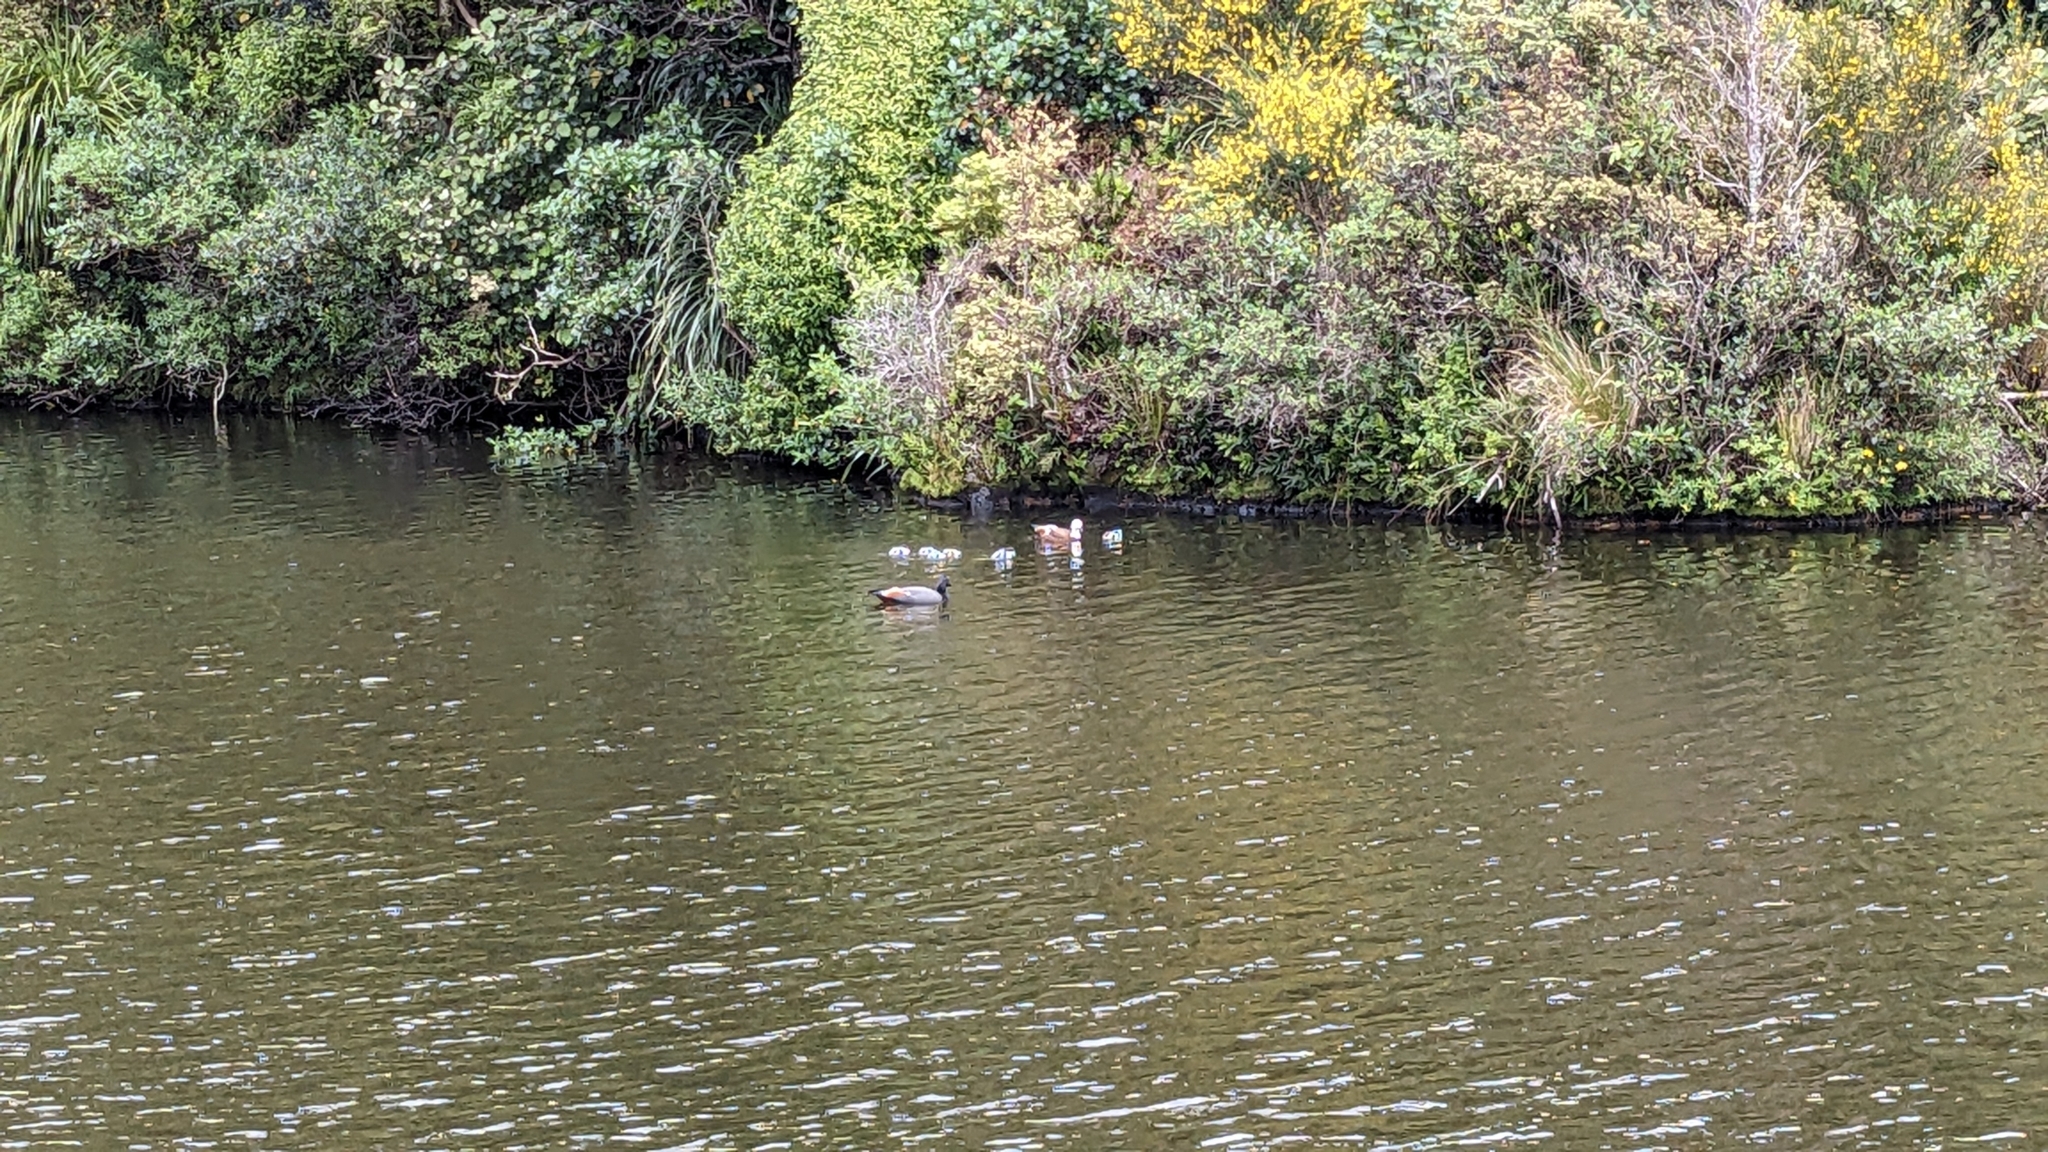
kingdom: Animalia
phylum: Chordata
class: Aves
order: Anseriformes
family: Anatidae
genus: Tadorna
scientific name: Tadorna variegata
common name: Paradise shelduck
